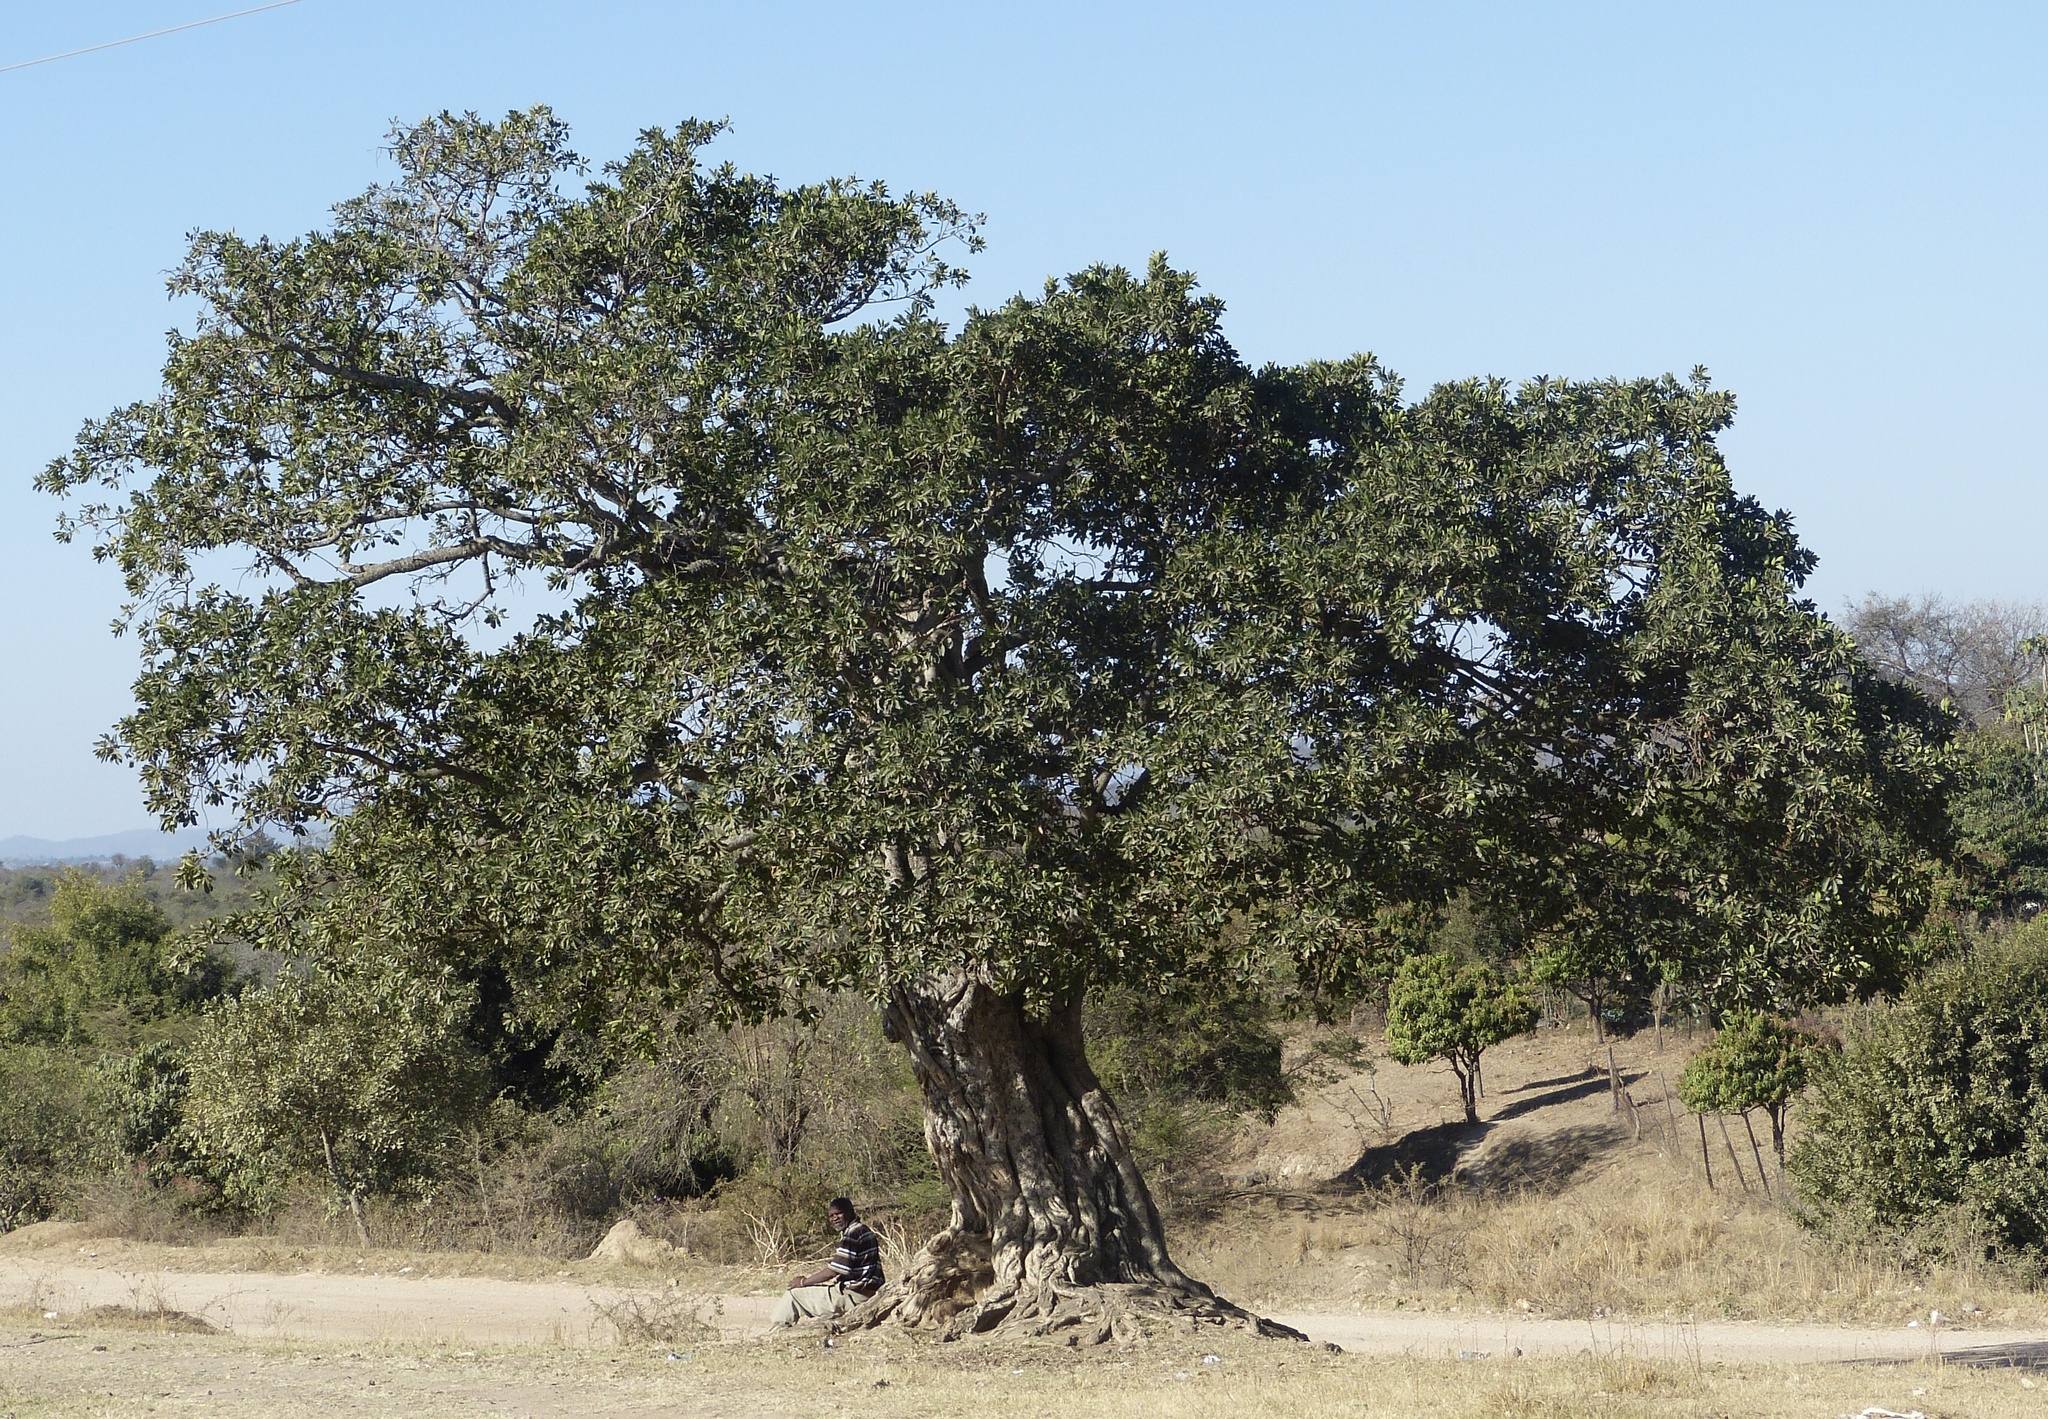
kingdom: Plantae
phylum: Tracheophyta
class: Magnoliopsida
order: Rosales
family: Moraceae
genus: Ficus
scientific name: Ficus sycomorus
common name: Sycomore
